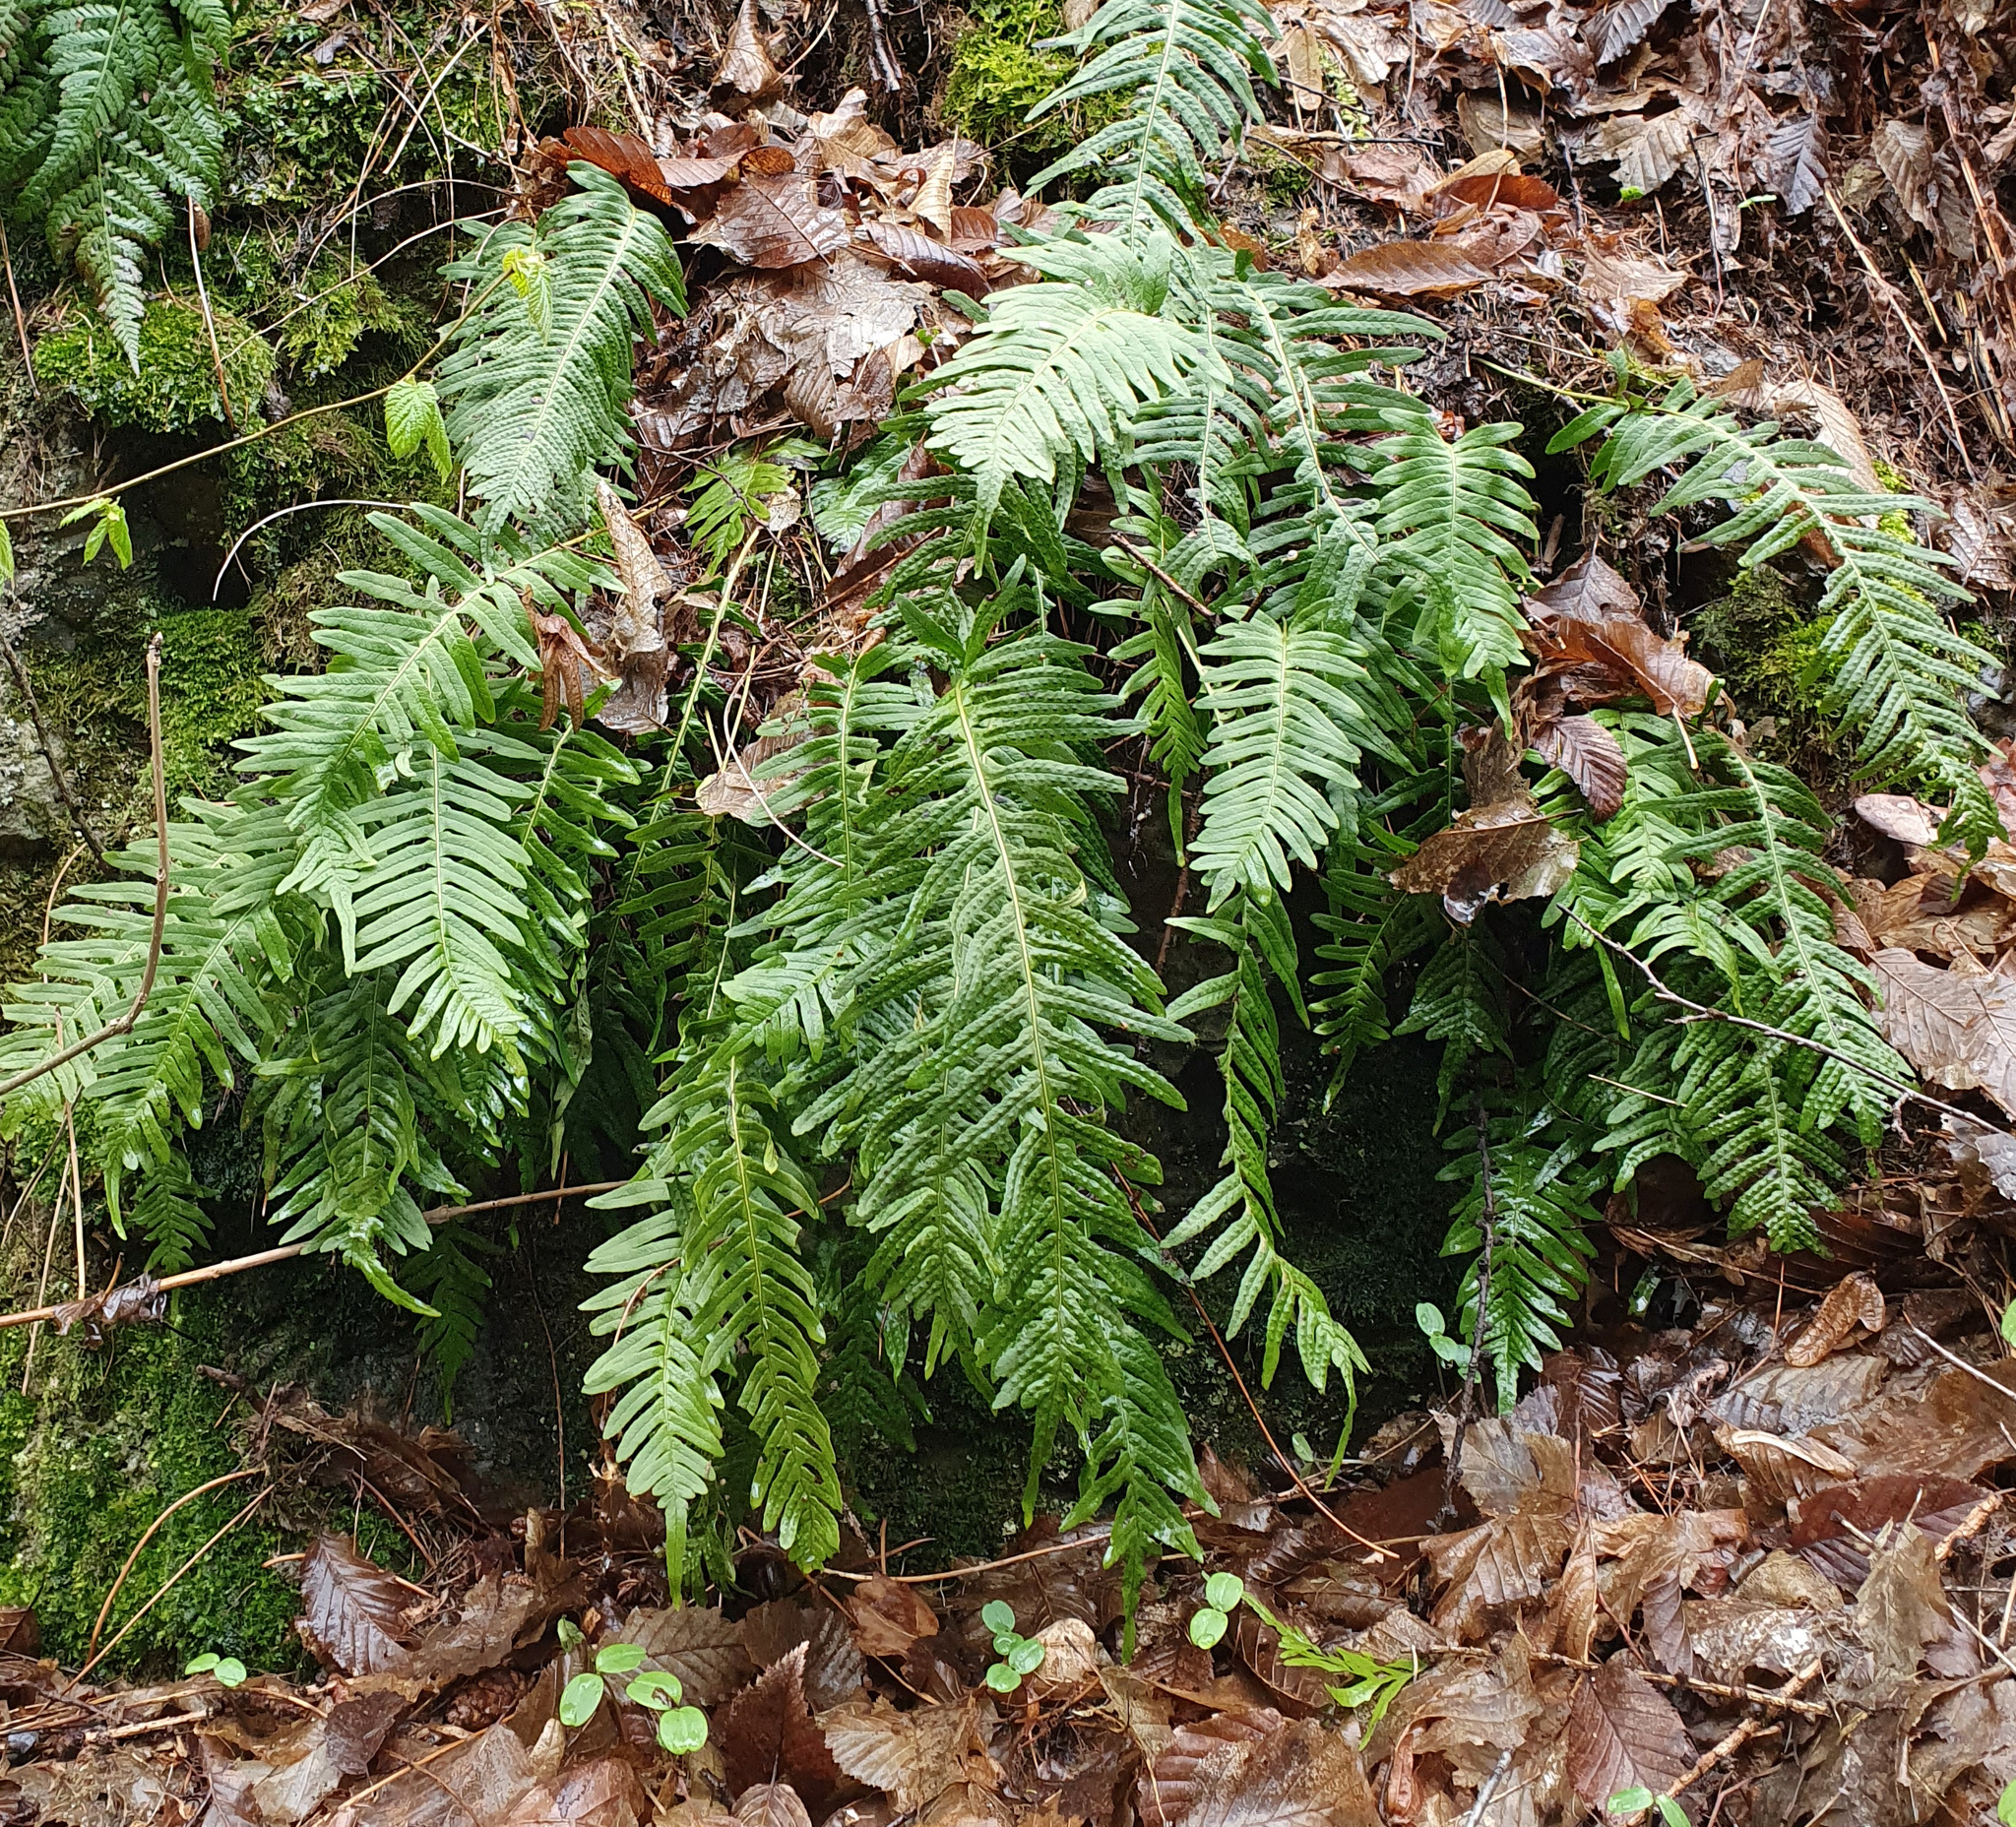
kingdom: Plantae
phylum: Tracheophyta
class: Polypodiopsida
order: Polypodiales
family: Polypodiaceae
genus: Polypodium
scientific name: Polypodium vulgare
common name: Common polypody
